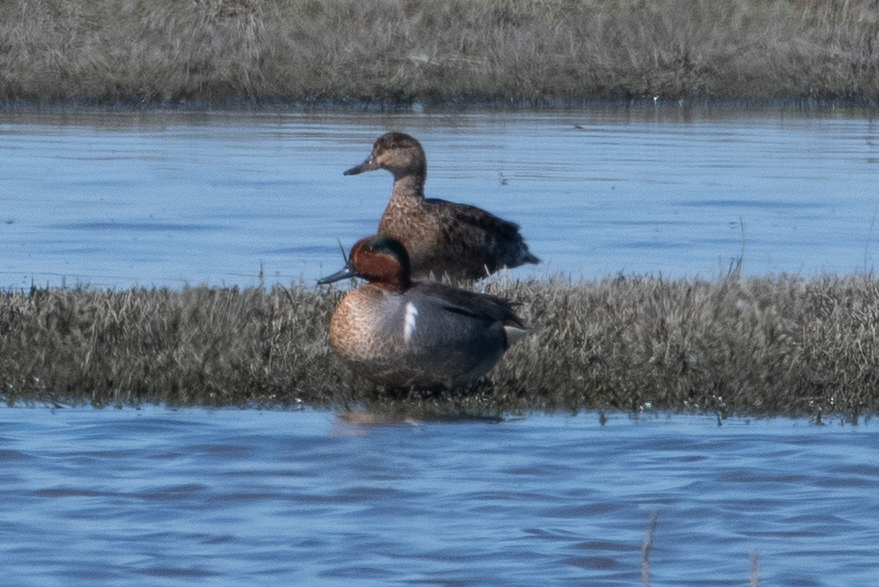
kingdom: Animalia
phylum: Chordata
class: Aves
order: Anseriformes
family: Anatidae
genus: Anas
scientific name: Anas crecca
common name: Eurasian teal
